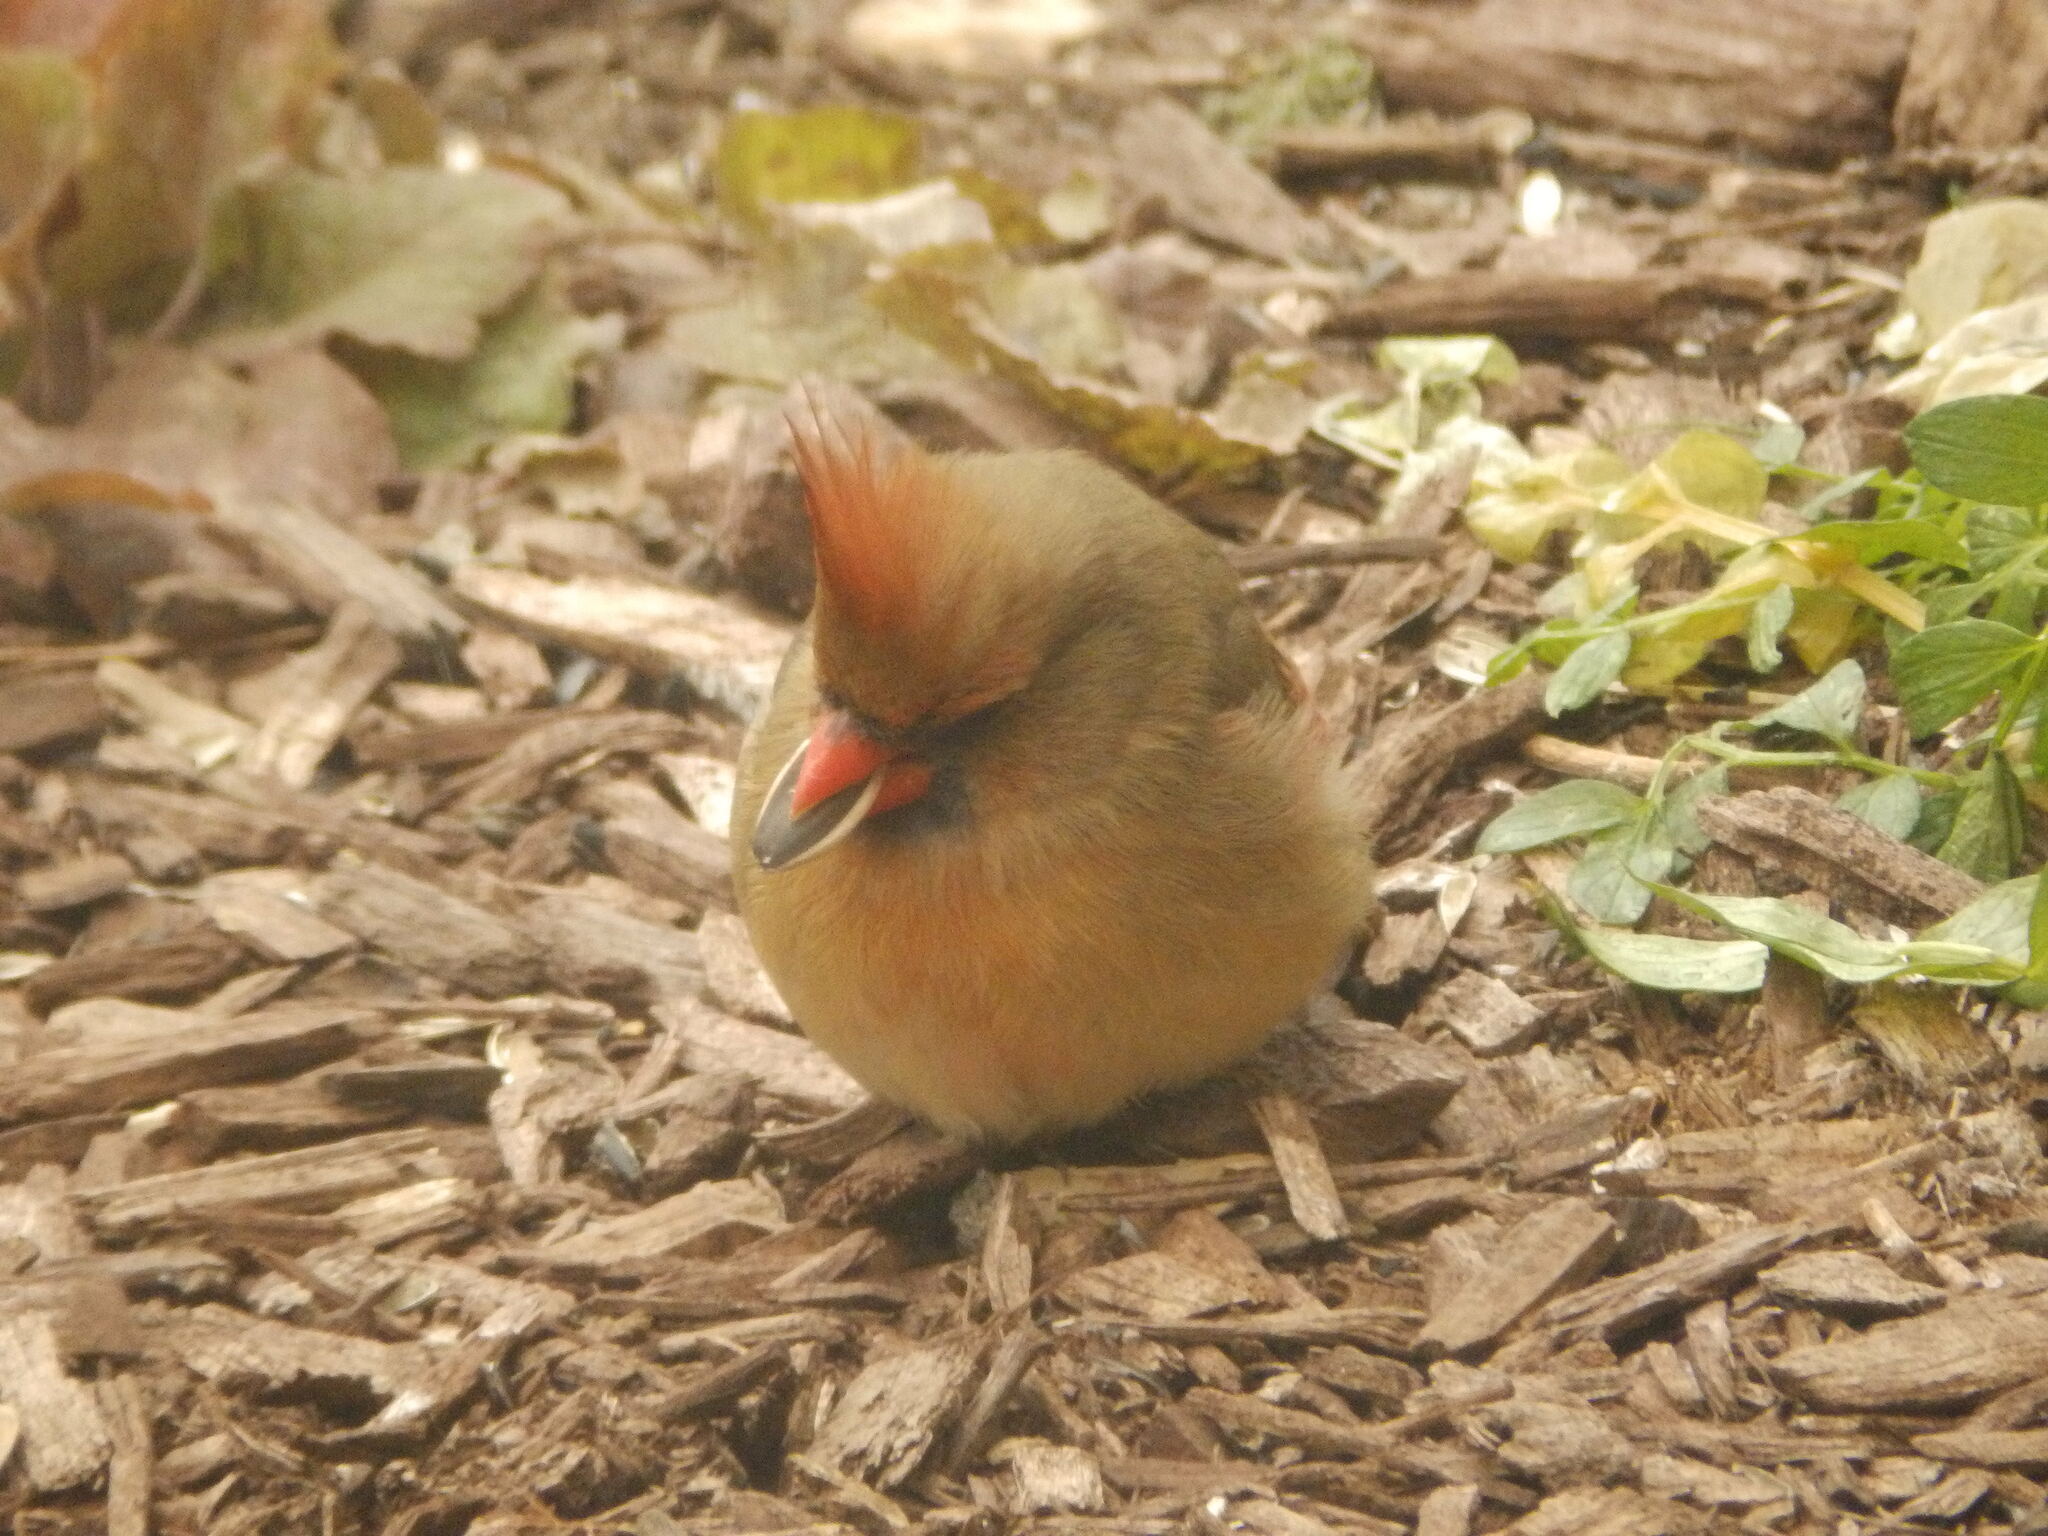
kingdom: Animalia
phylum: Chordata
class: Aves
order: Passeriformes
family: Cardinalidae
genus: Cardinalis
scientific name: Cardinalis cardinalis
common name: Northern cardinal
